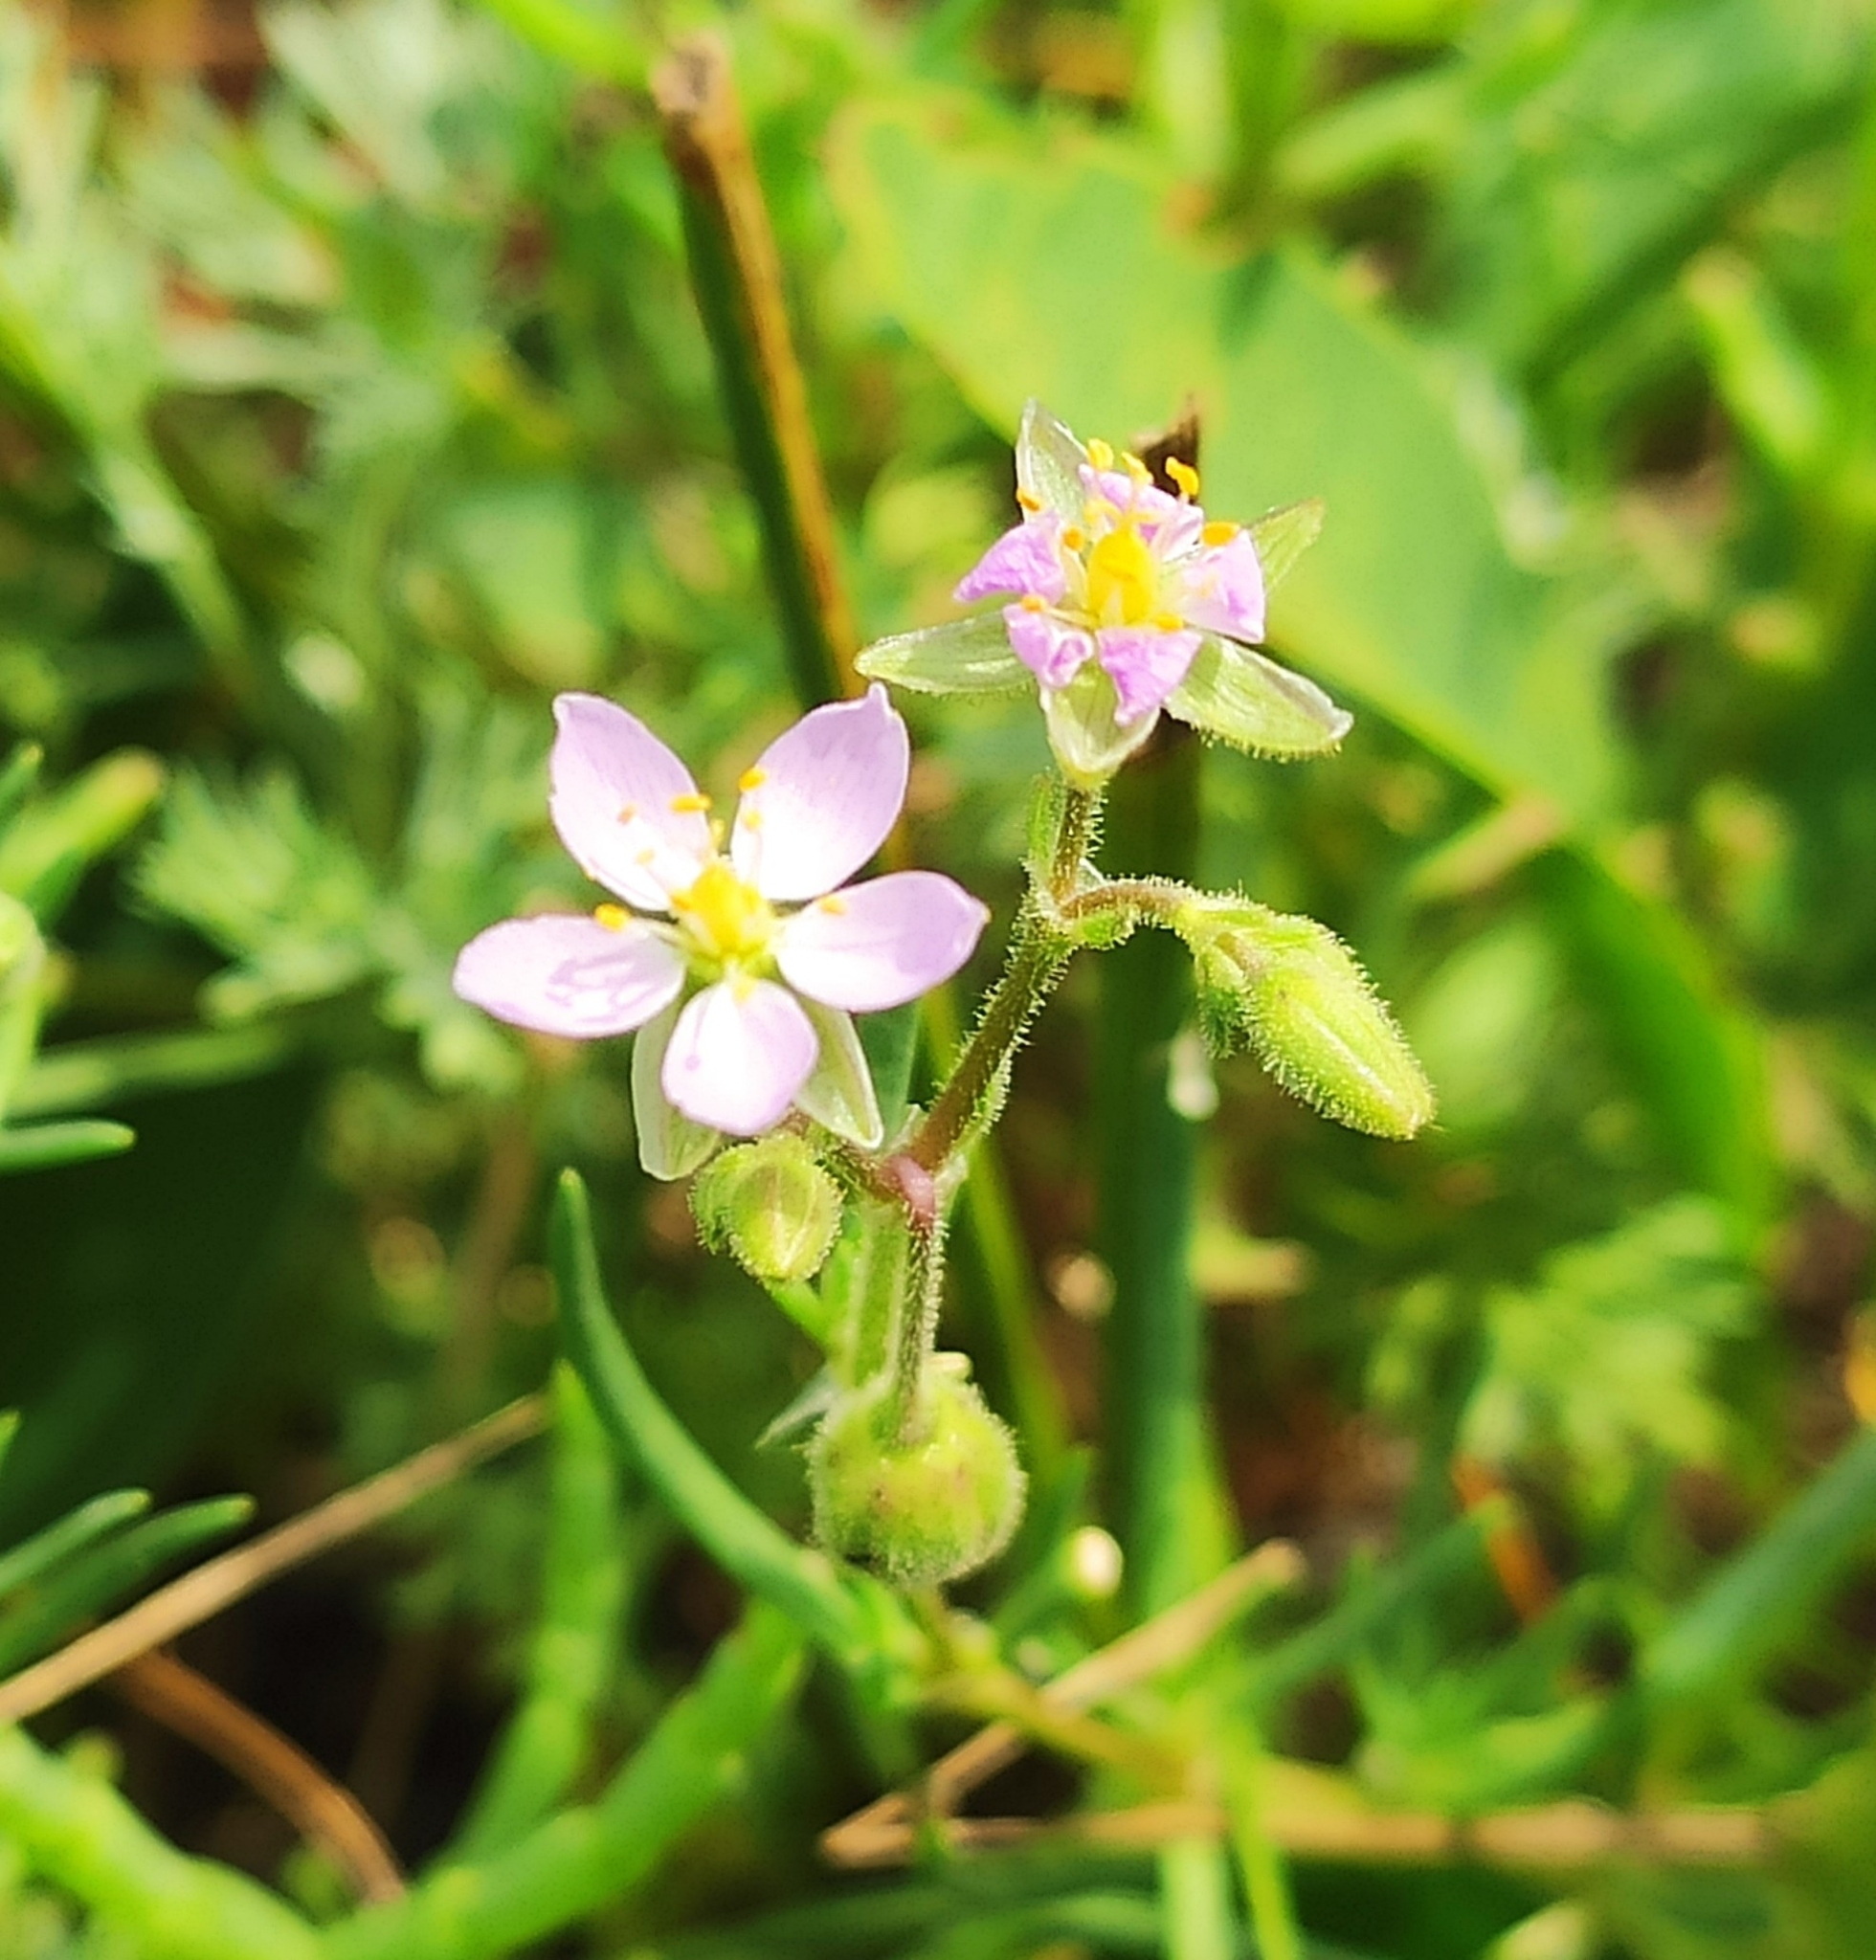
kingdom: Plantae
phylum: Tracheophyta
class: Magnoliopsida
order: Caryophyllales
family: Caryophyllaceae
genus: Spergularia
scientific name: Spergularia media
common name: Greater sea-spurrey
